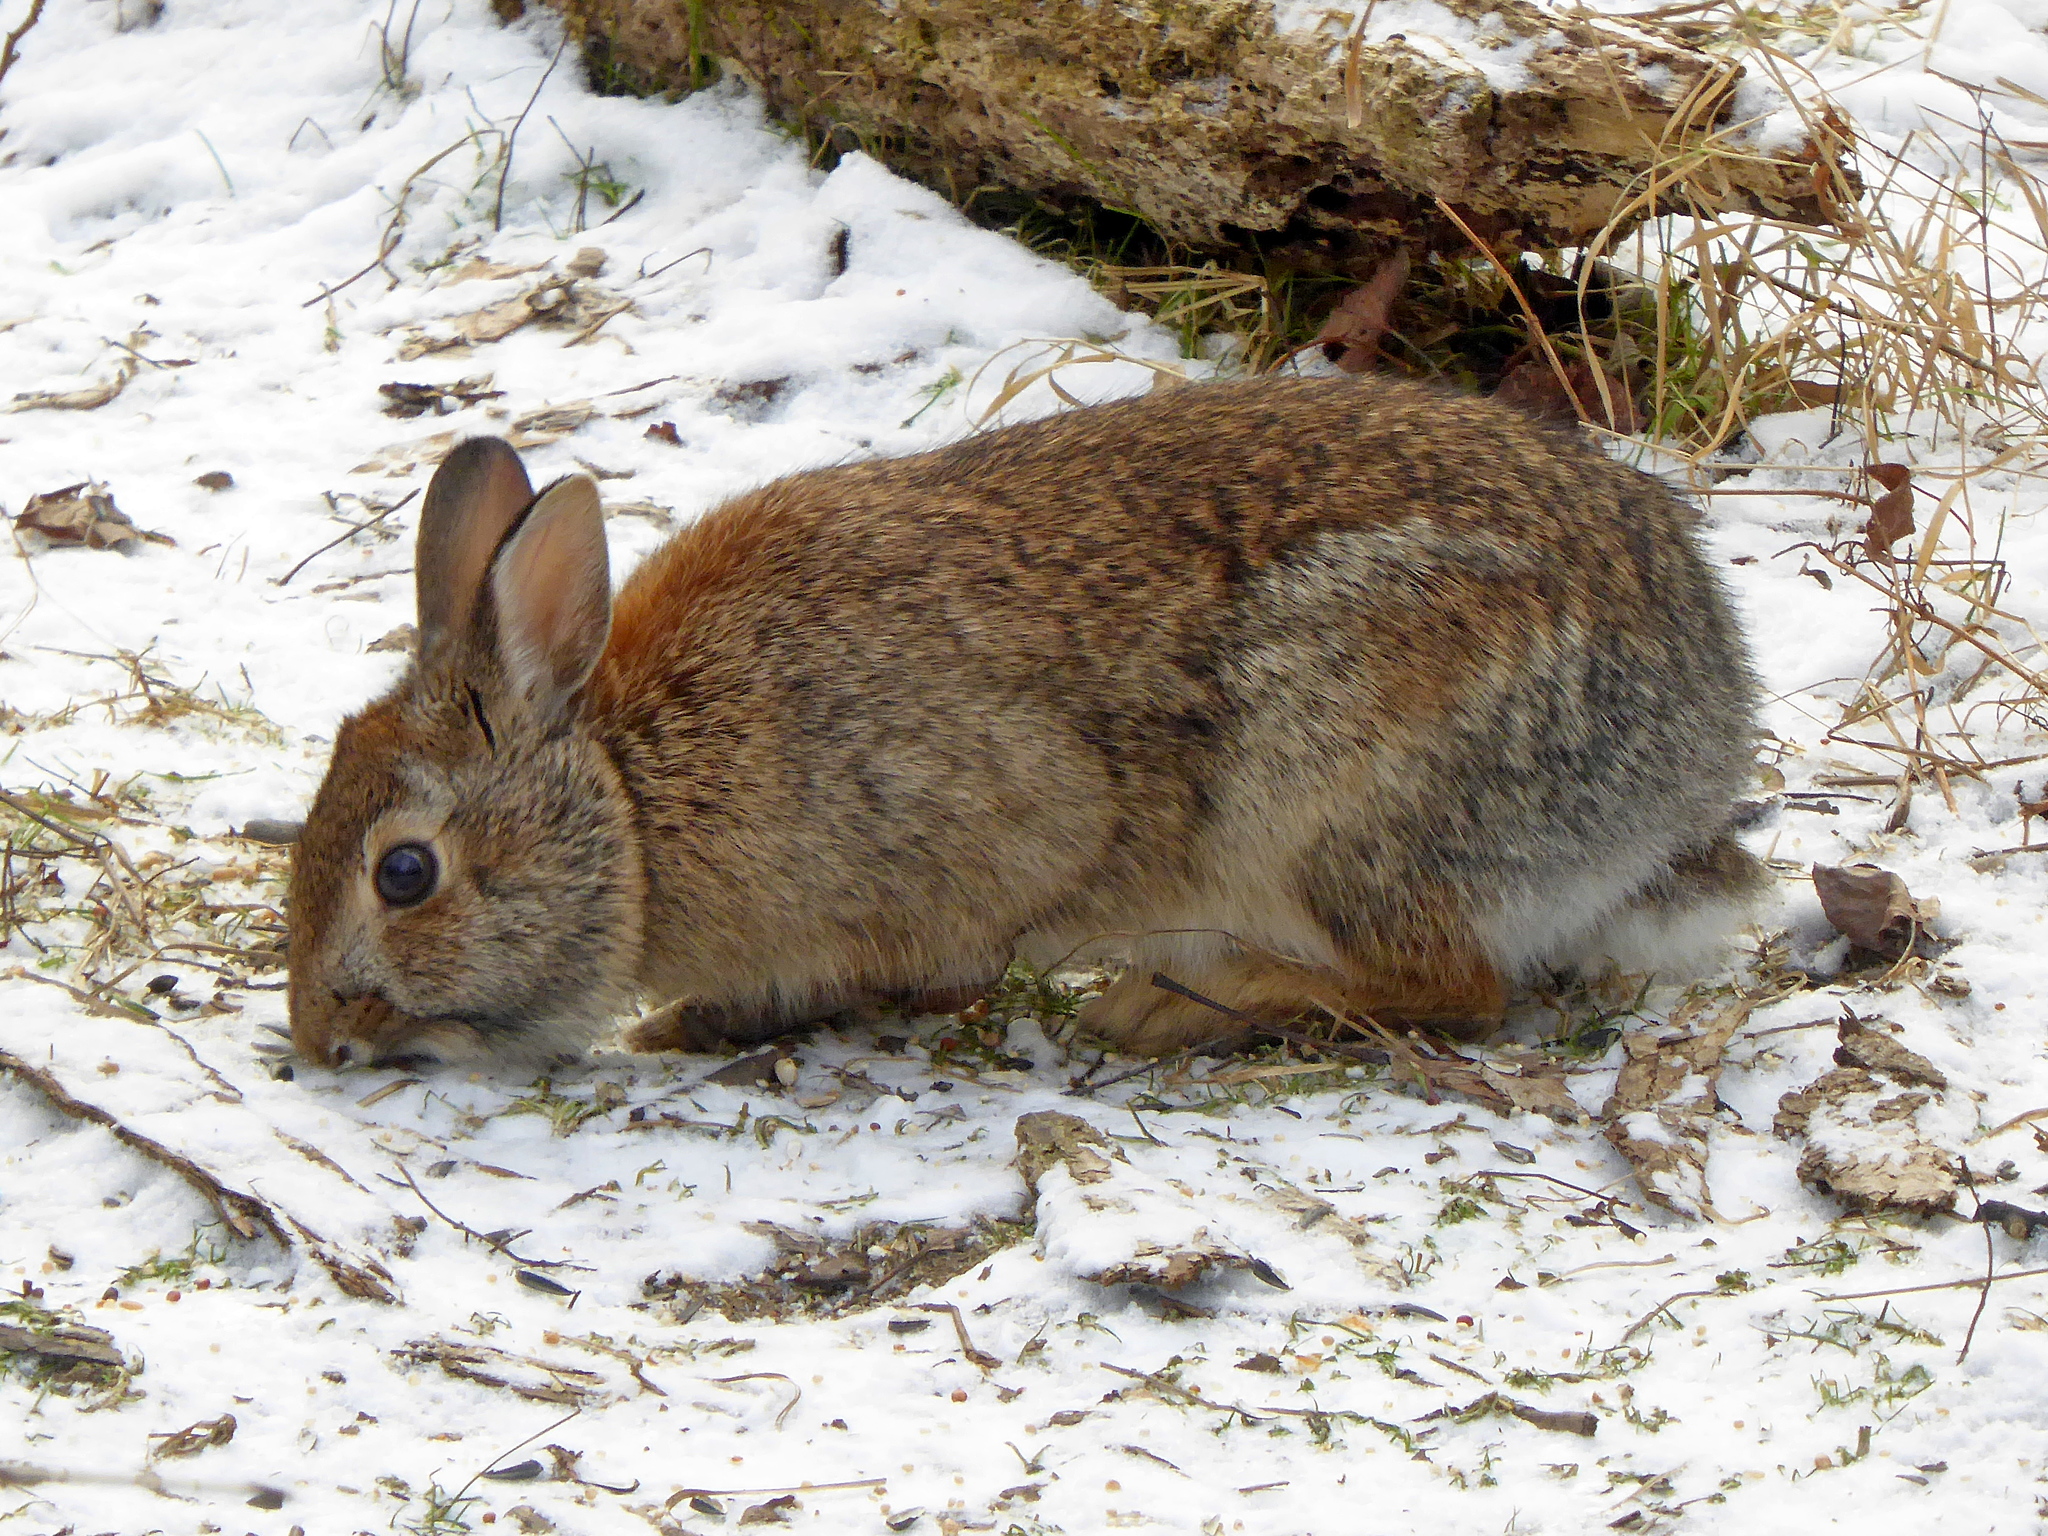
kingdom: Animalia
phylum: Chordata
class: Mammalia
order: Lagomorpha
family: Leporidae
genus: Sylvilagus
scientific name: Sylvilagus floridanus
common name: Eastern cottontail
